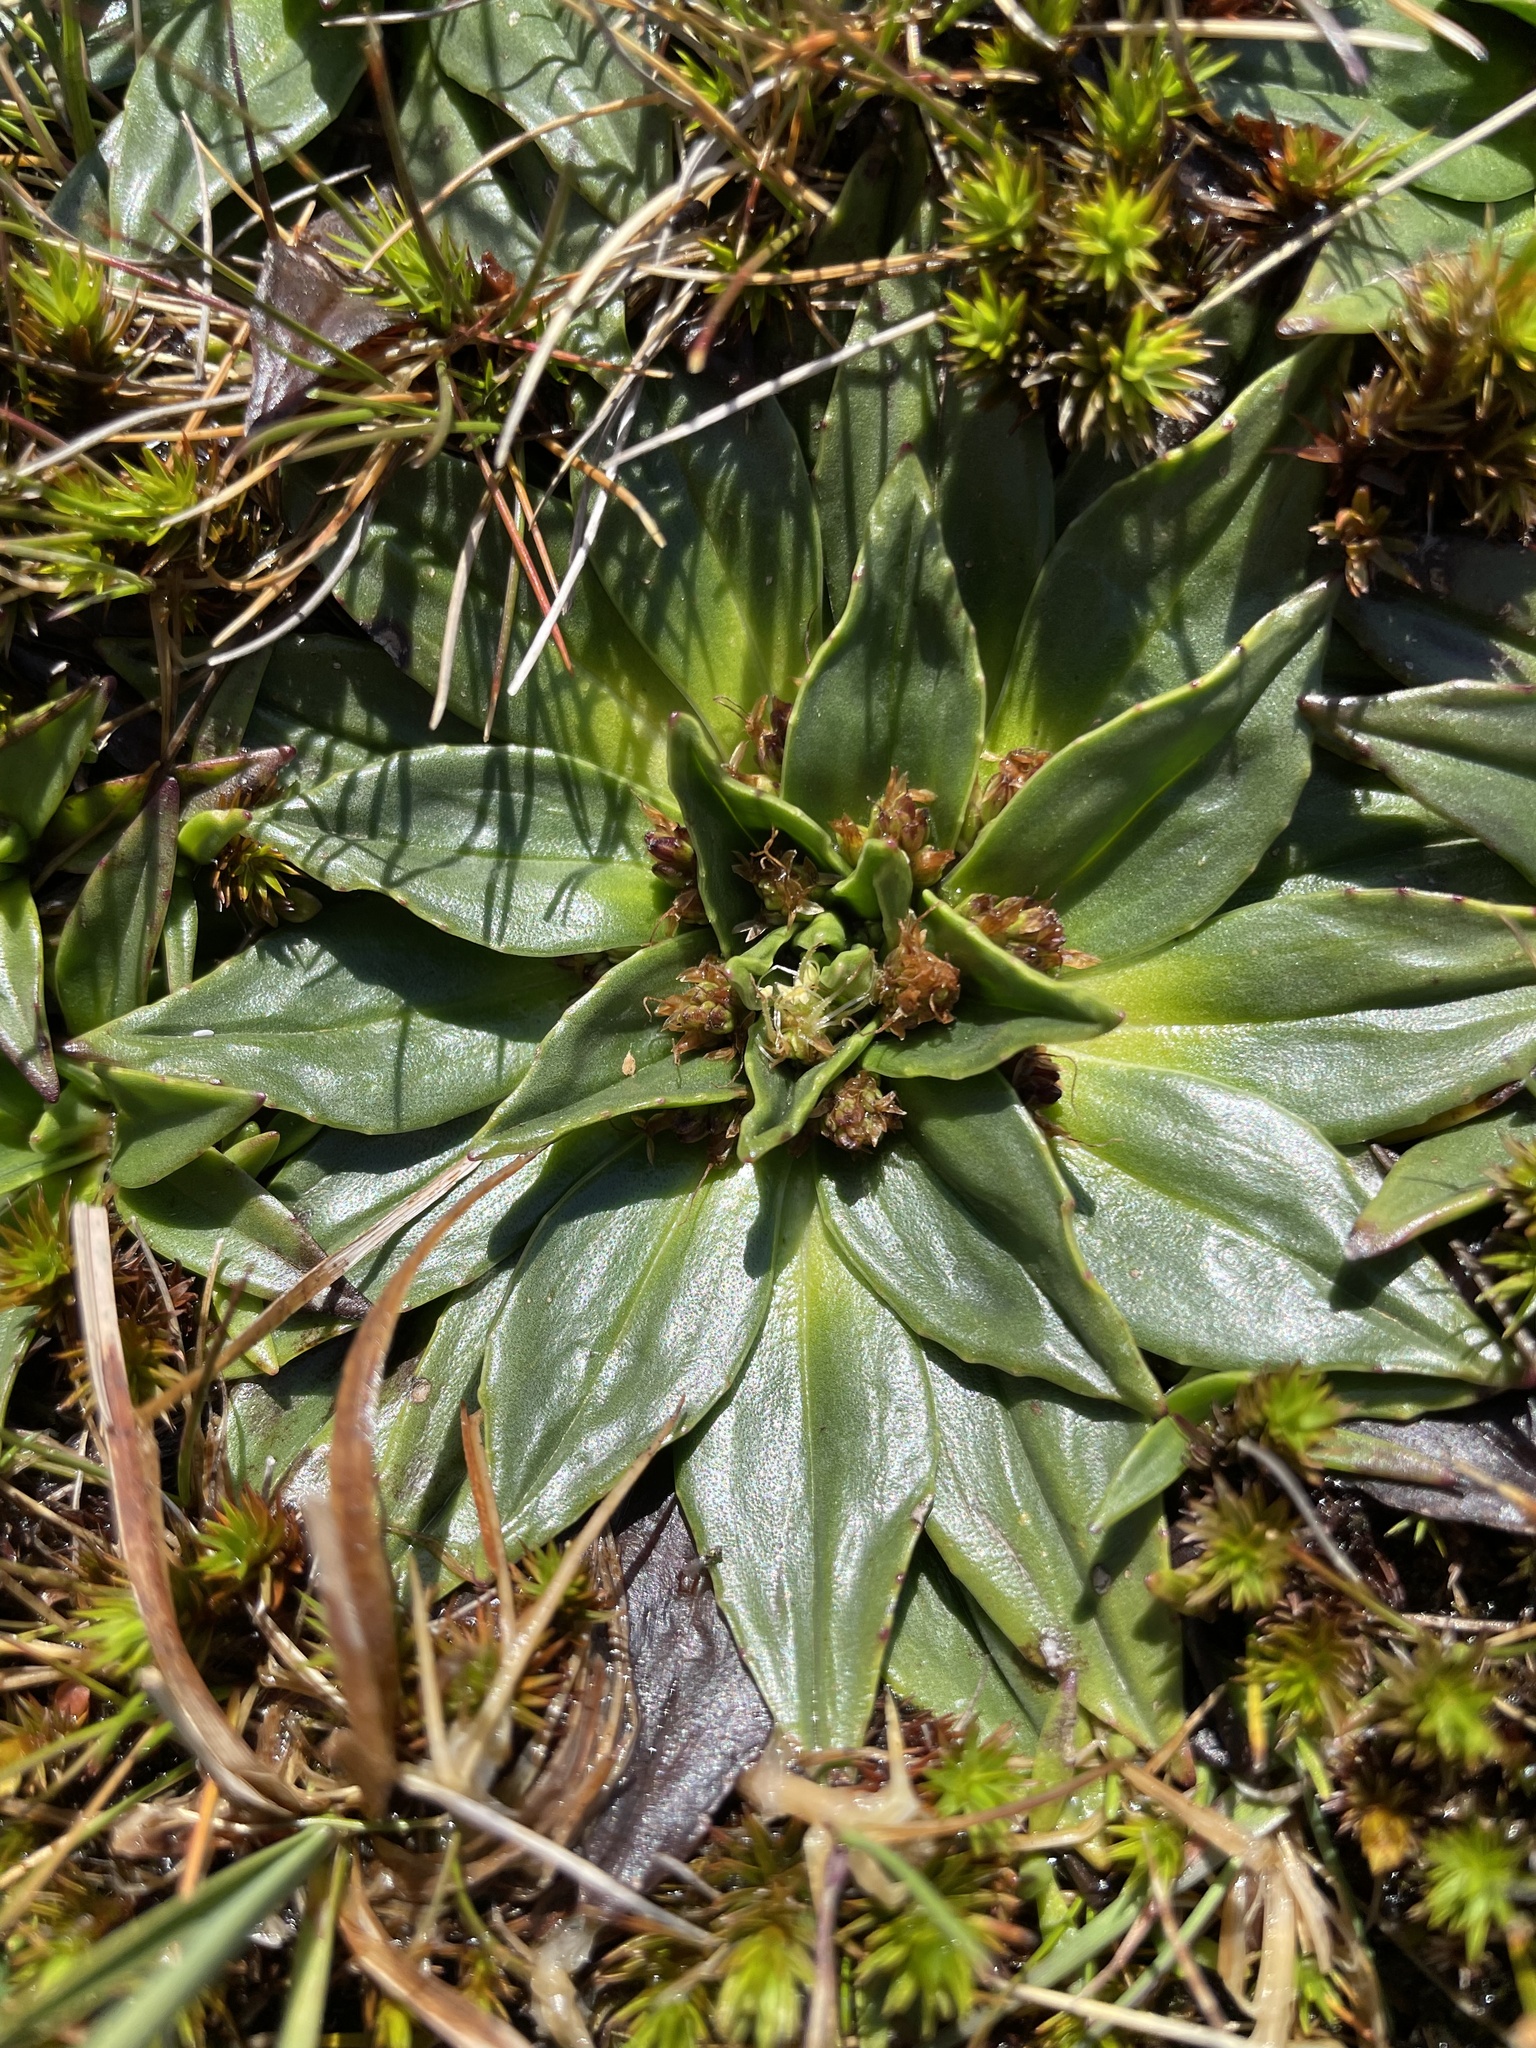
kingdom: Plantae
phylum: Tracheophyta
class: Magnoliopsida
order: Lamiales
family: Plantaginaceae
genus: Plantago
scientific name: Plantago muelleri
